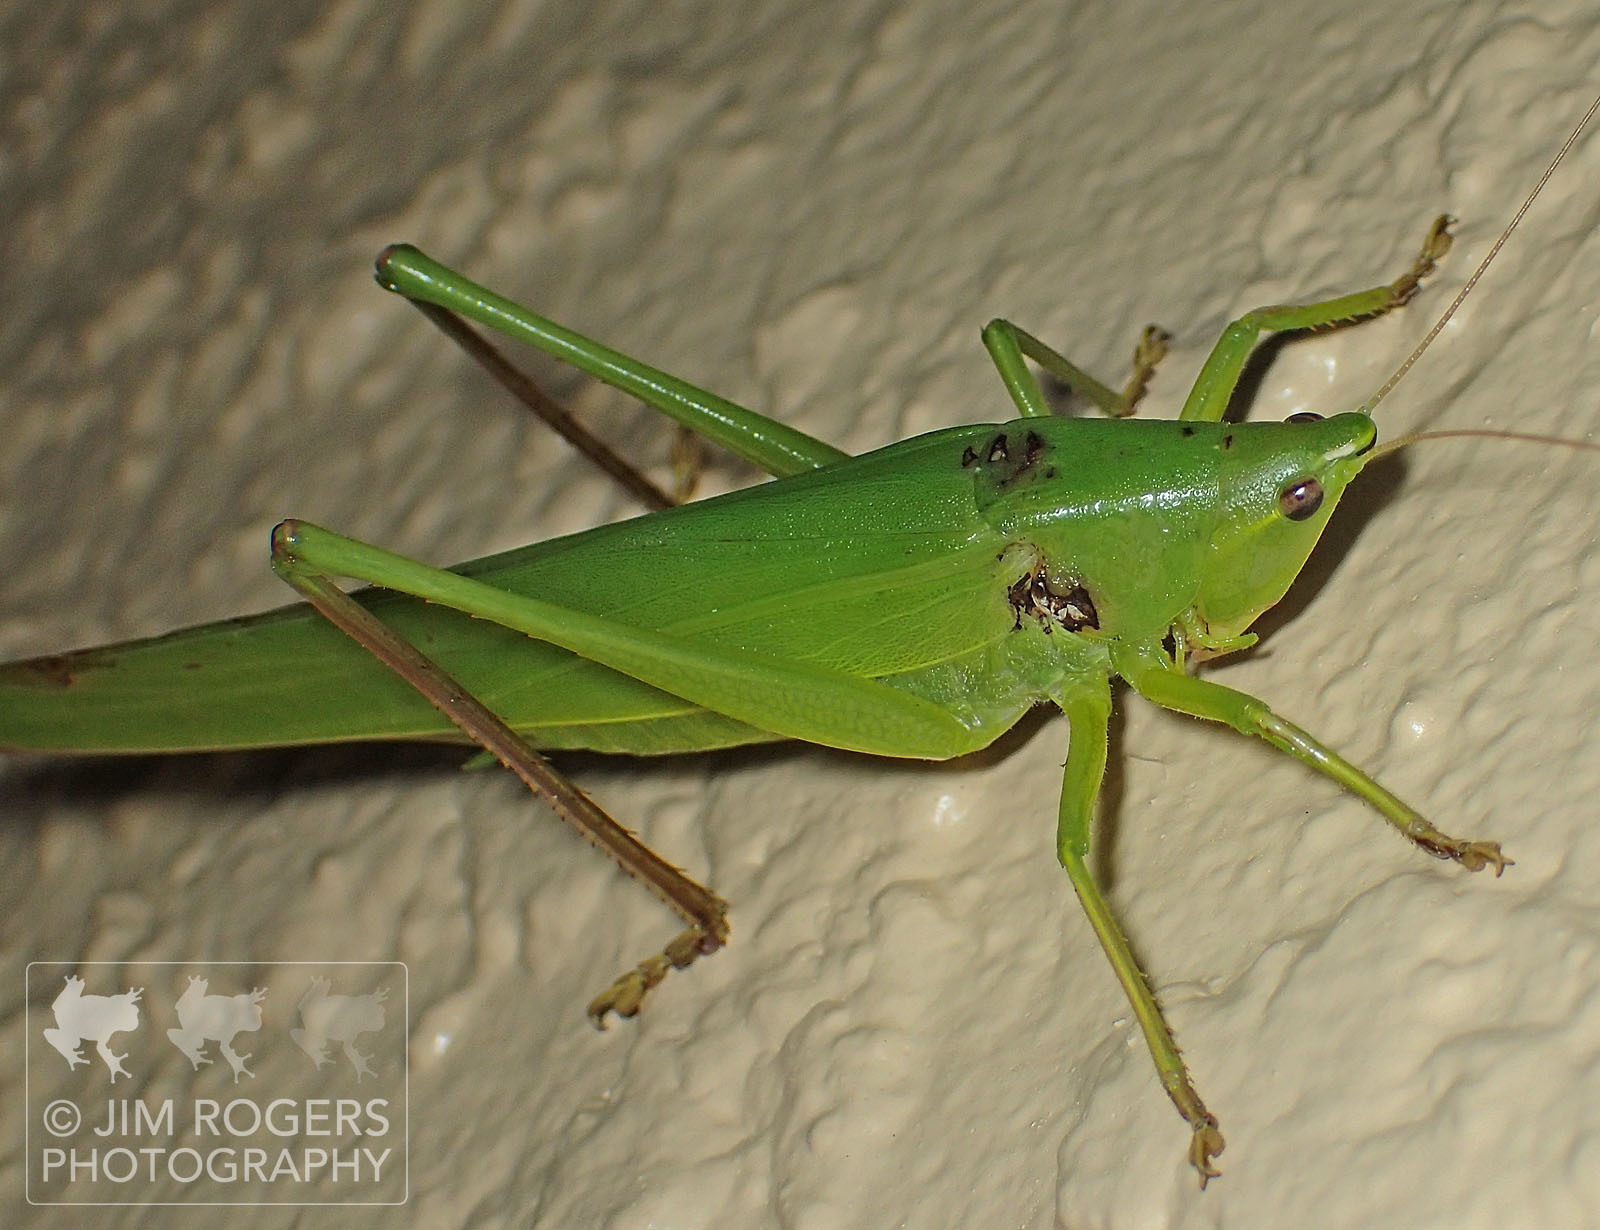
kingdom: Animalia
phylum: Arthropoda
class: Insecta
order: Orthoptera
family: Tettigoniidae
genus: Neoconocephalus
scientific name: Neoconocephalus triops
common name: Broad-tipped conehead
